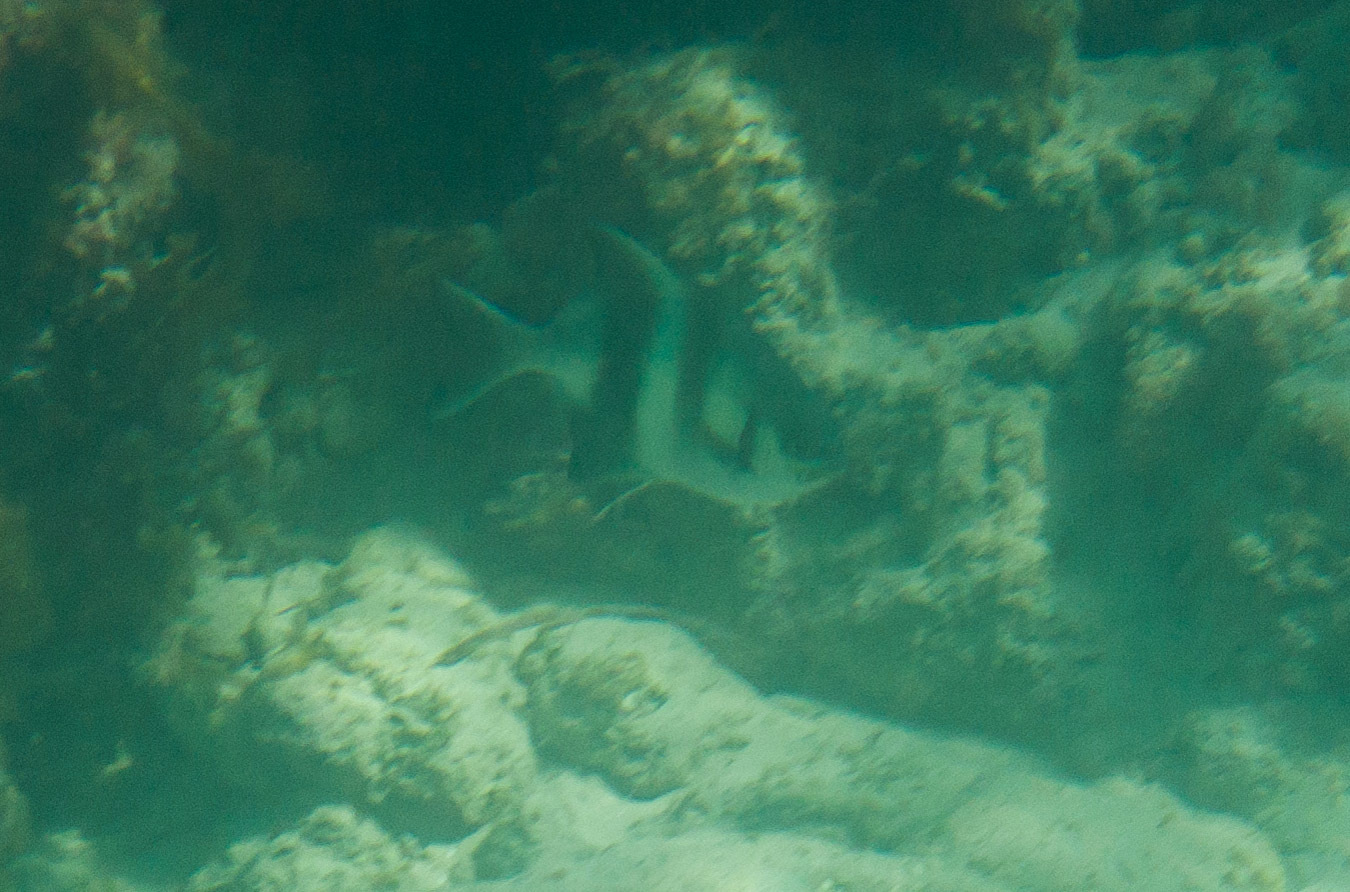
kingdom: Animalia
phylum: Chordata
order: Perciformes
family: Kyphosidae
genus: Scorpis
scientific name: Scorpis georgiana
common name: Banded sweep
